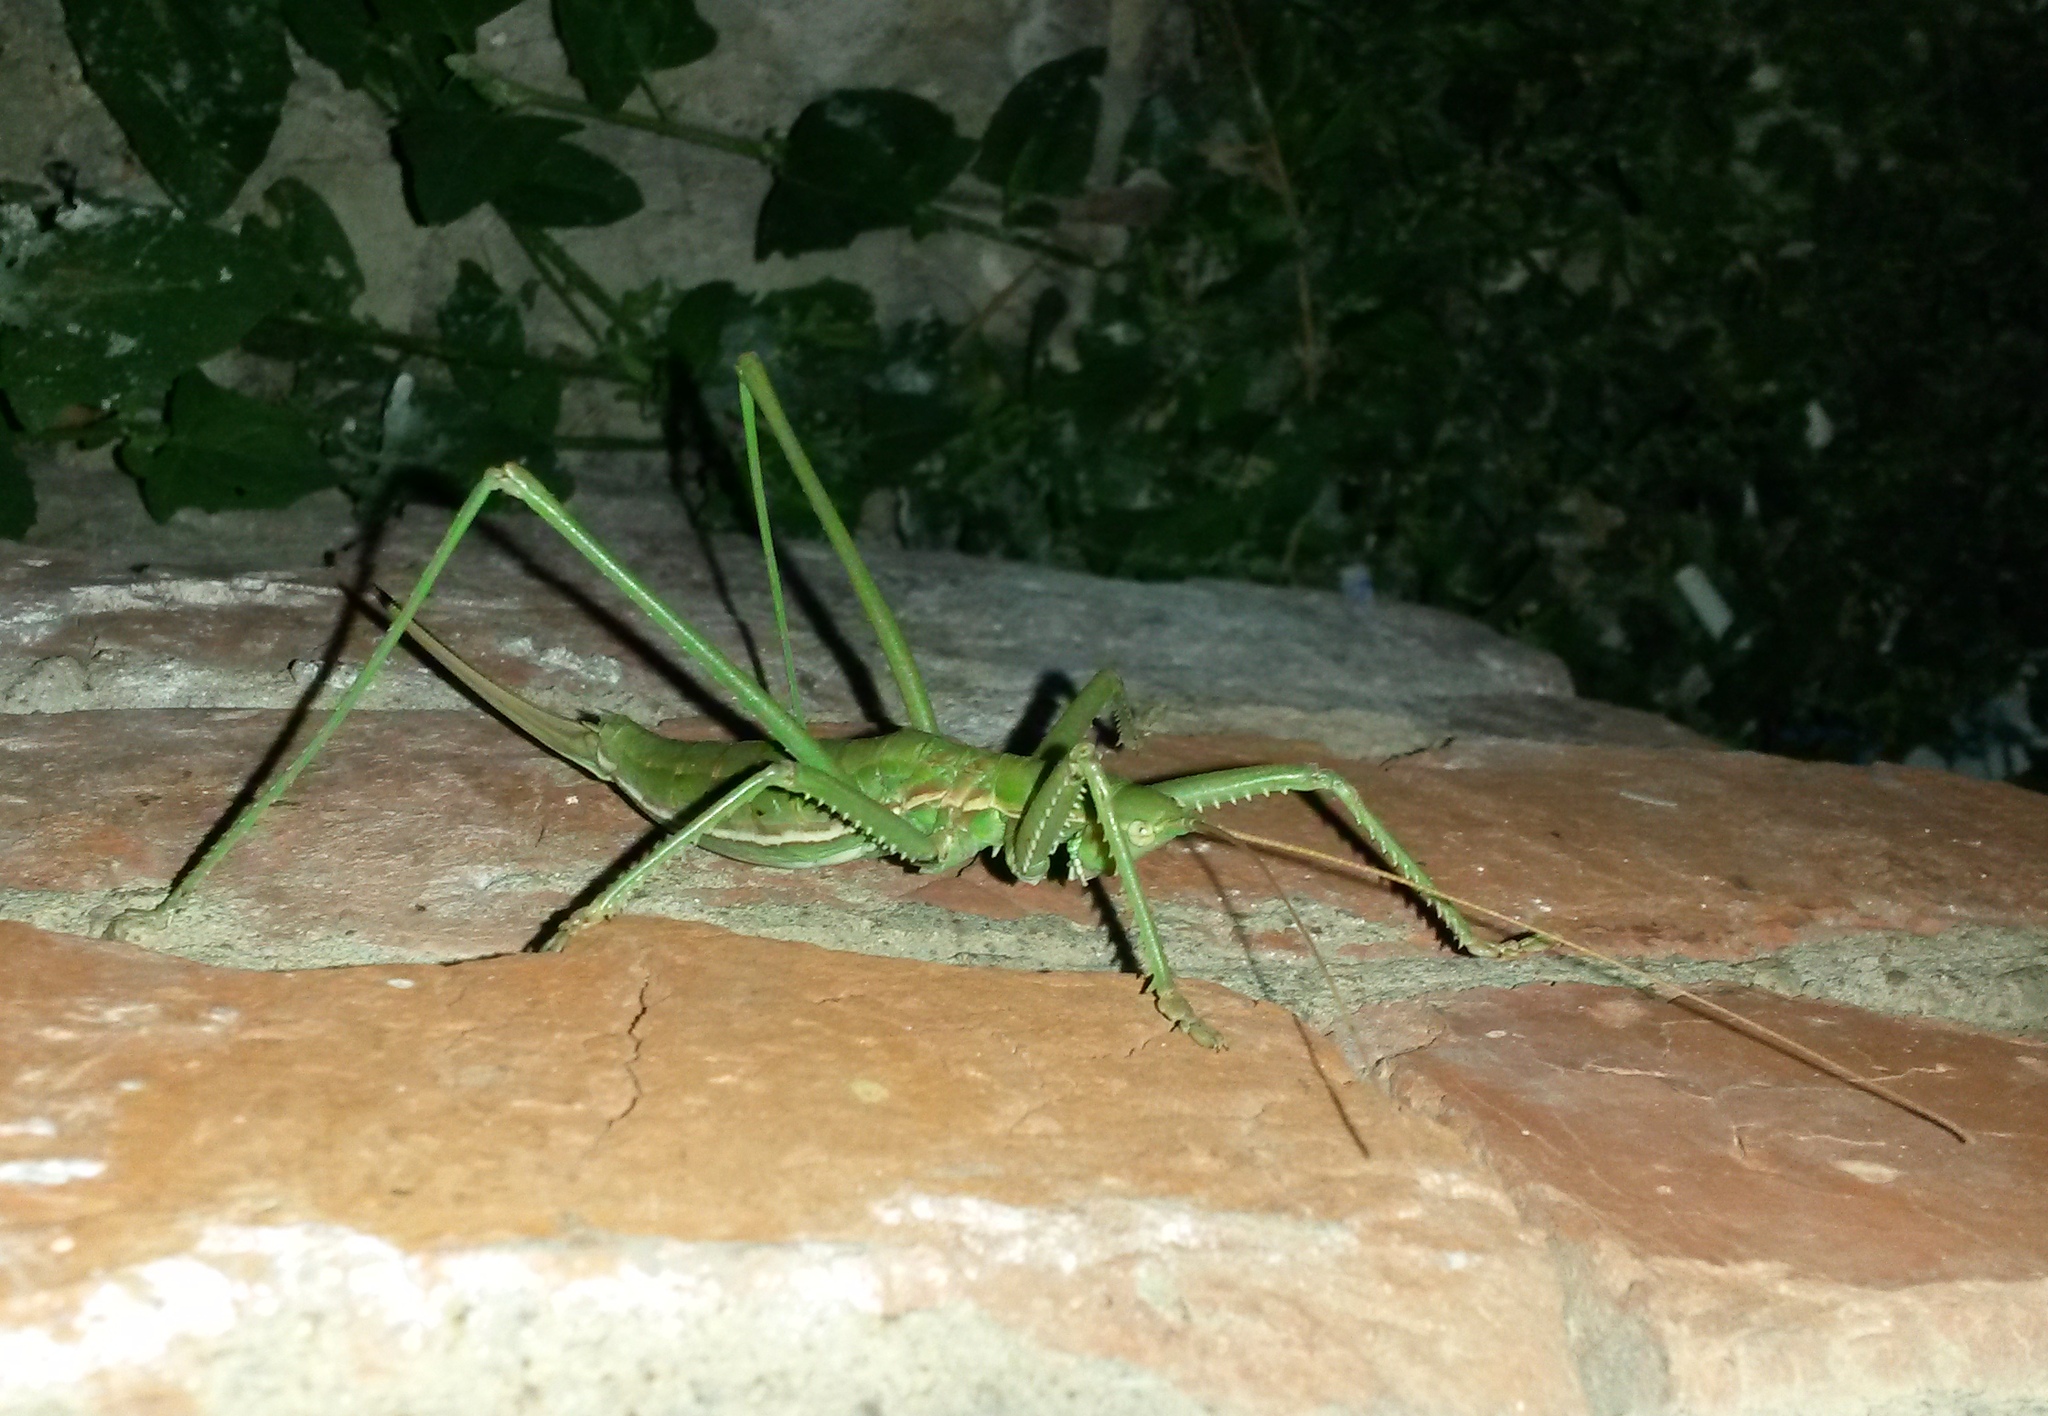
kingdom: Animalia
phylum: Arthropoda
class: Insecta
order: Orthoptera
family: Tettigoniidae
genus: Saga
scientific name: Saga pedo
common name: Common predatory bush-cricket
